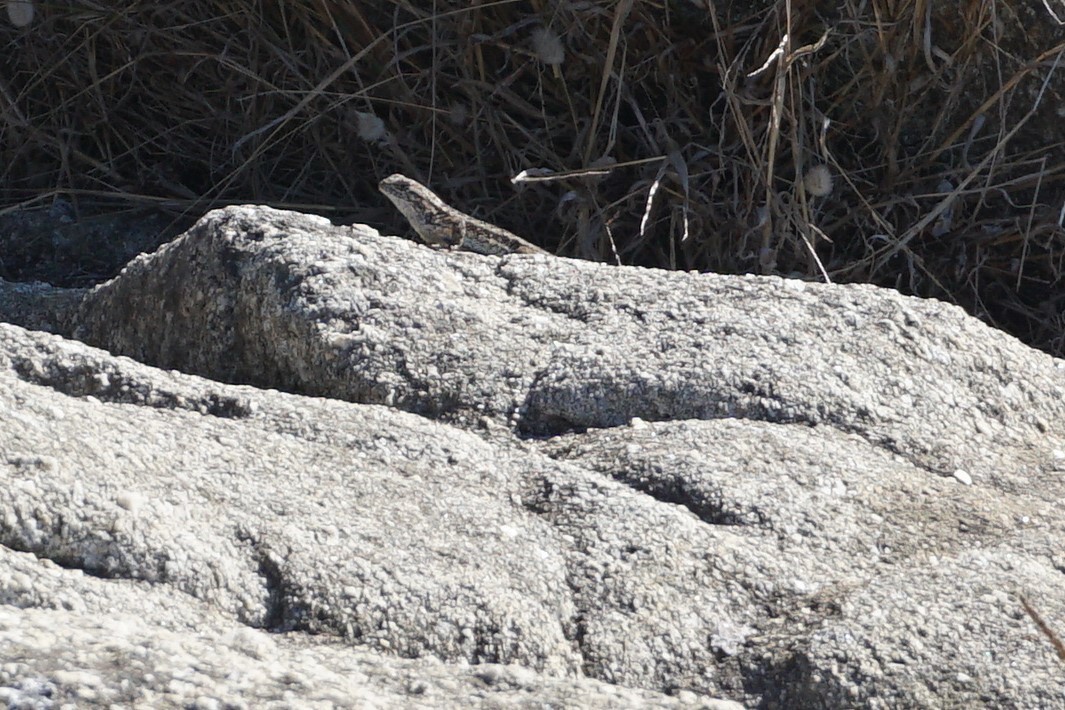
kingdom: Animalia
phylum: Chordata
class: Squamata
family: Phrynosomatidae
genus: Sceloporus
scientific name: Sceloporus occidentalis
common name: Western fence lizard
